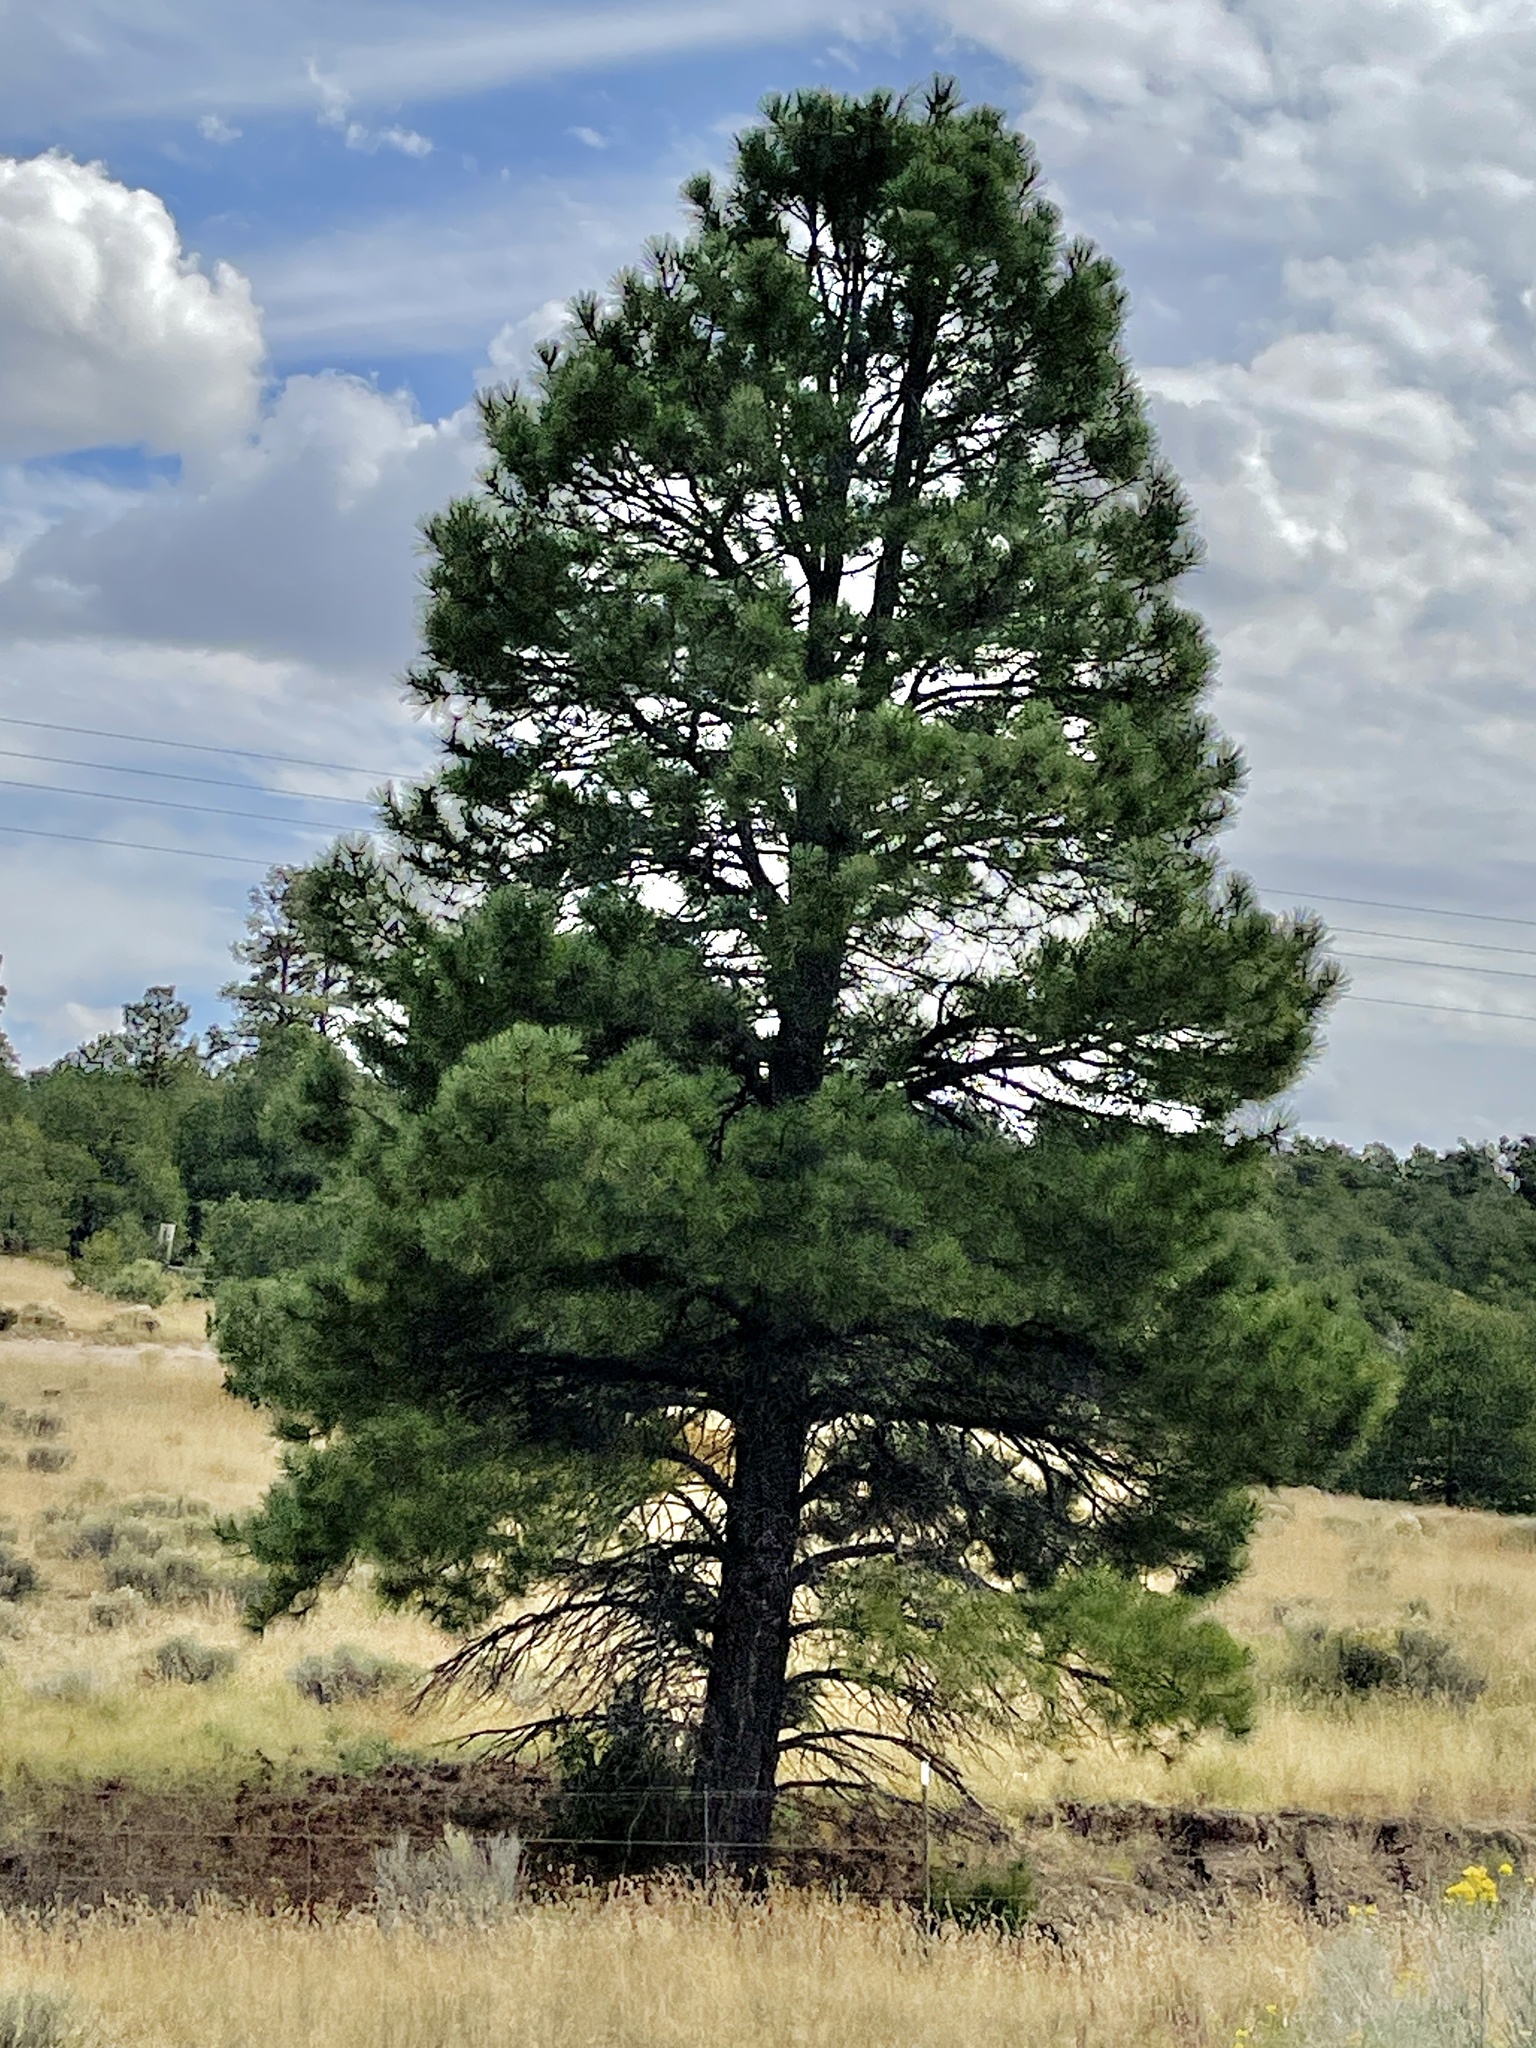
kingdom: Plantae
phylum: Tracheophyta
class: Pinopsida
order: Pinales
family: Pinaceae
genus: Pinus
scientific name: Pinus ponderosa
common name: Western yellow-pine
